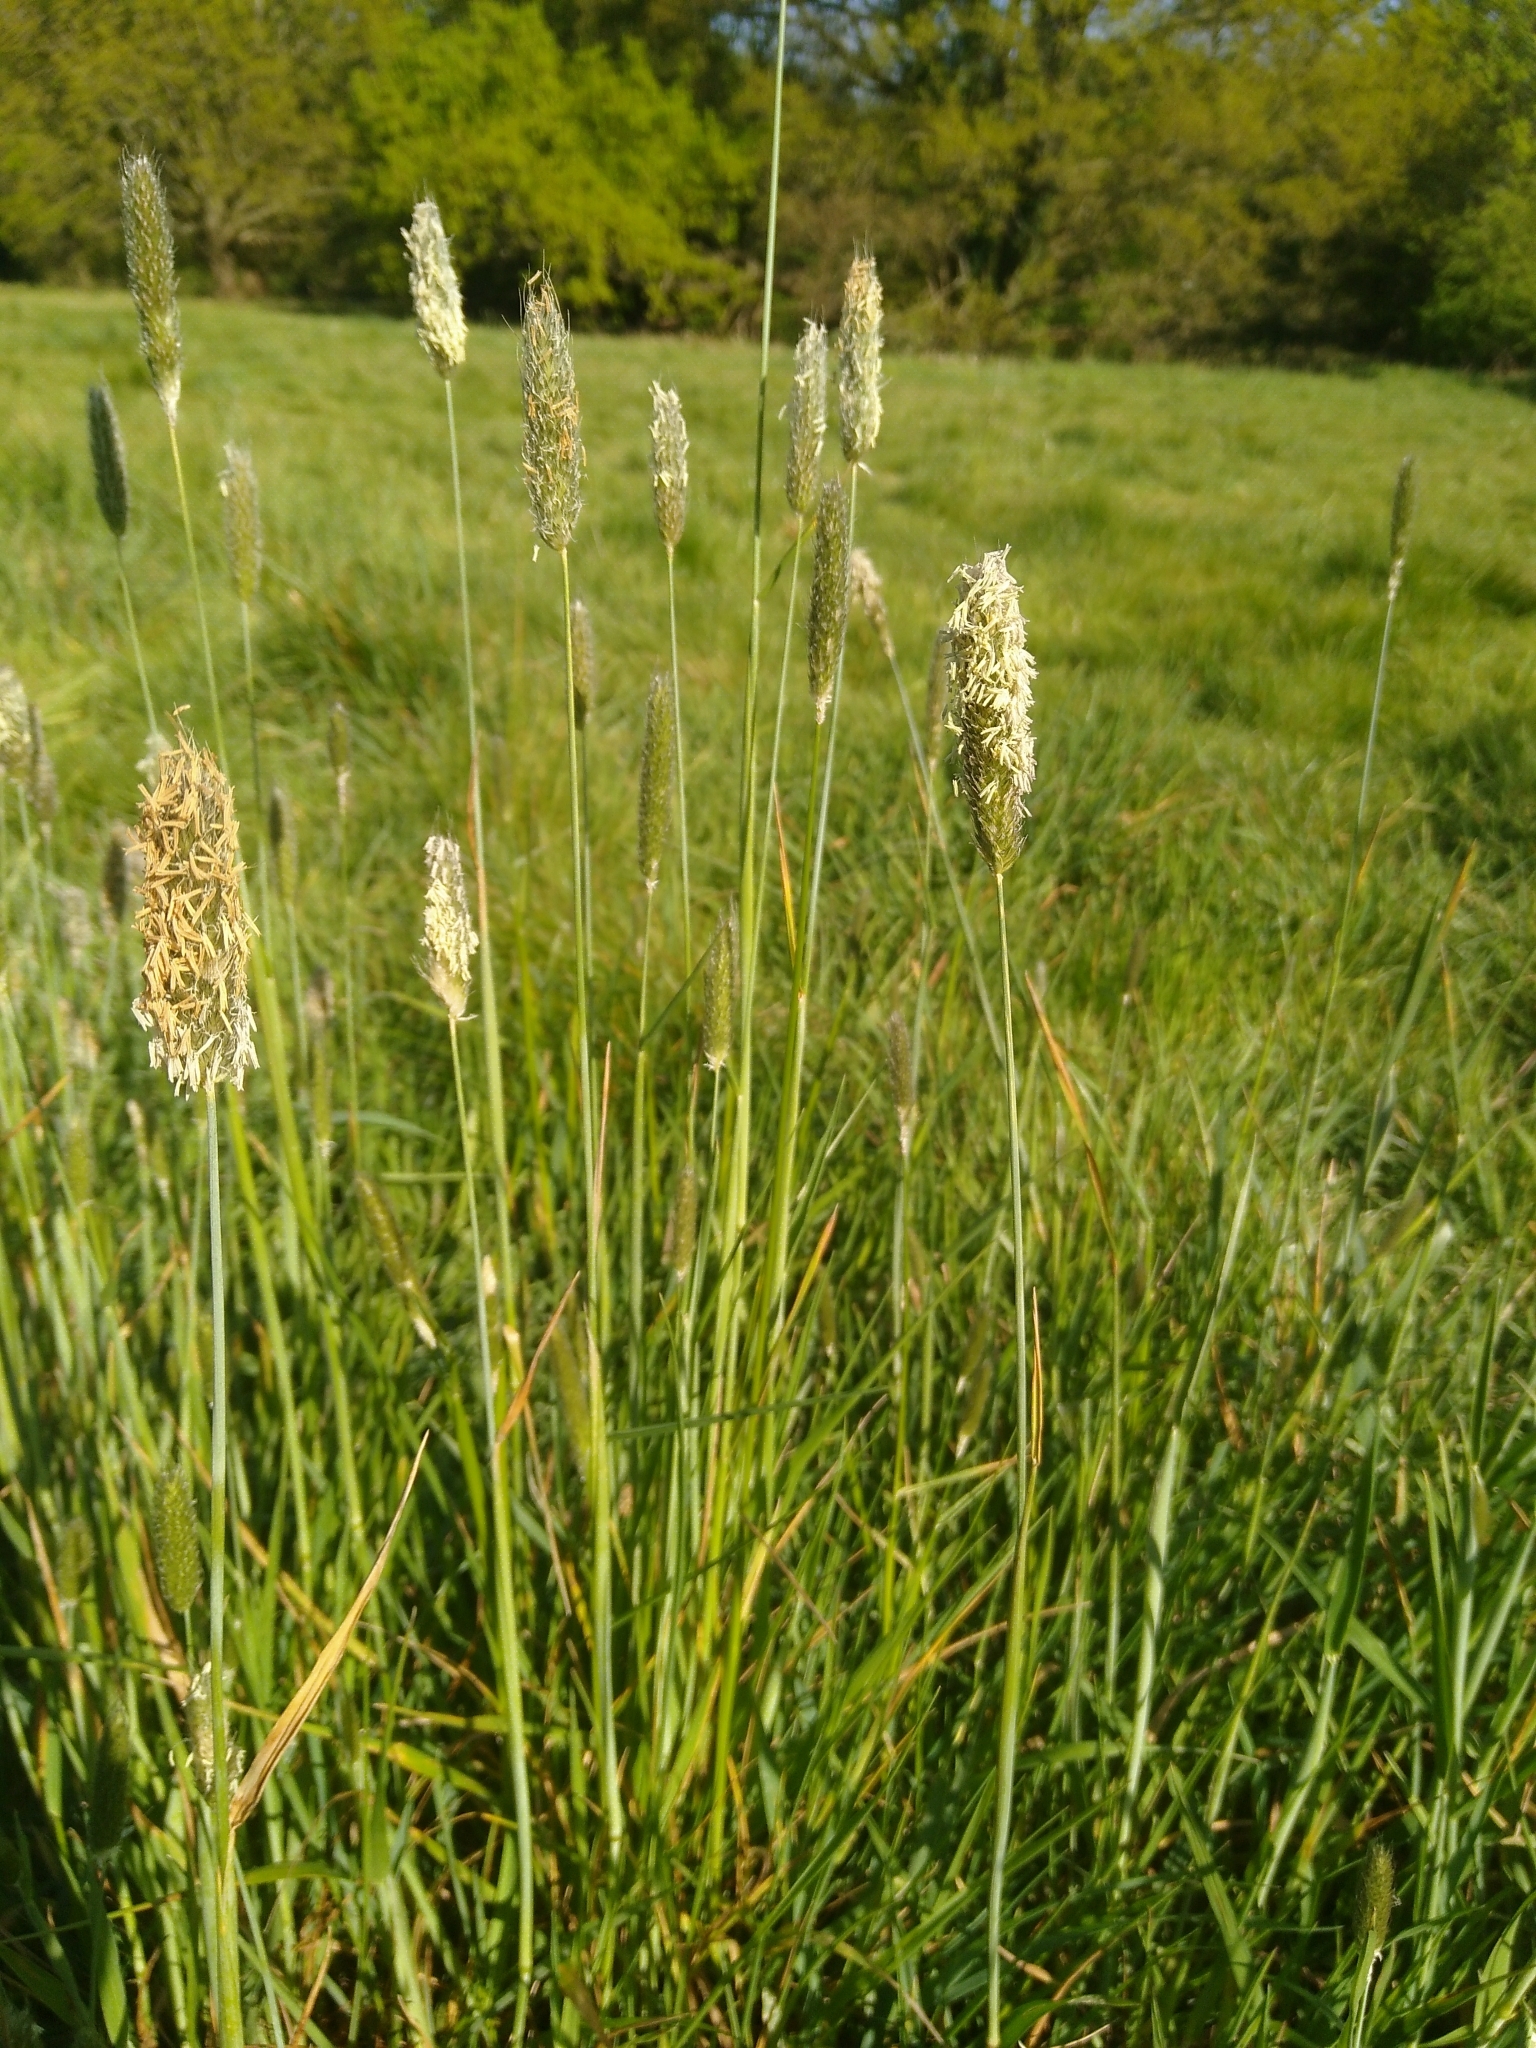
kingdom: Plantae
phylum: Tracheophyta
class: Liliopsida
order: Poales
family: Poaceae
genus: Alopecurus
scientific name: Alopecurus pratensis
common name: Meadow foxtail
